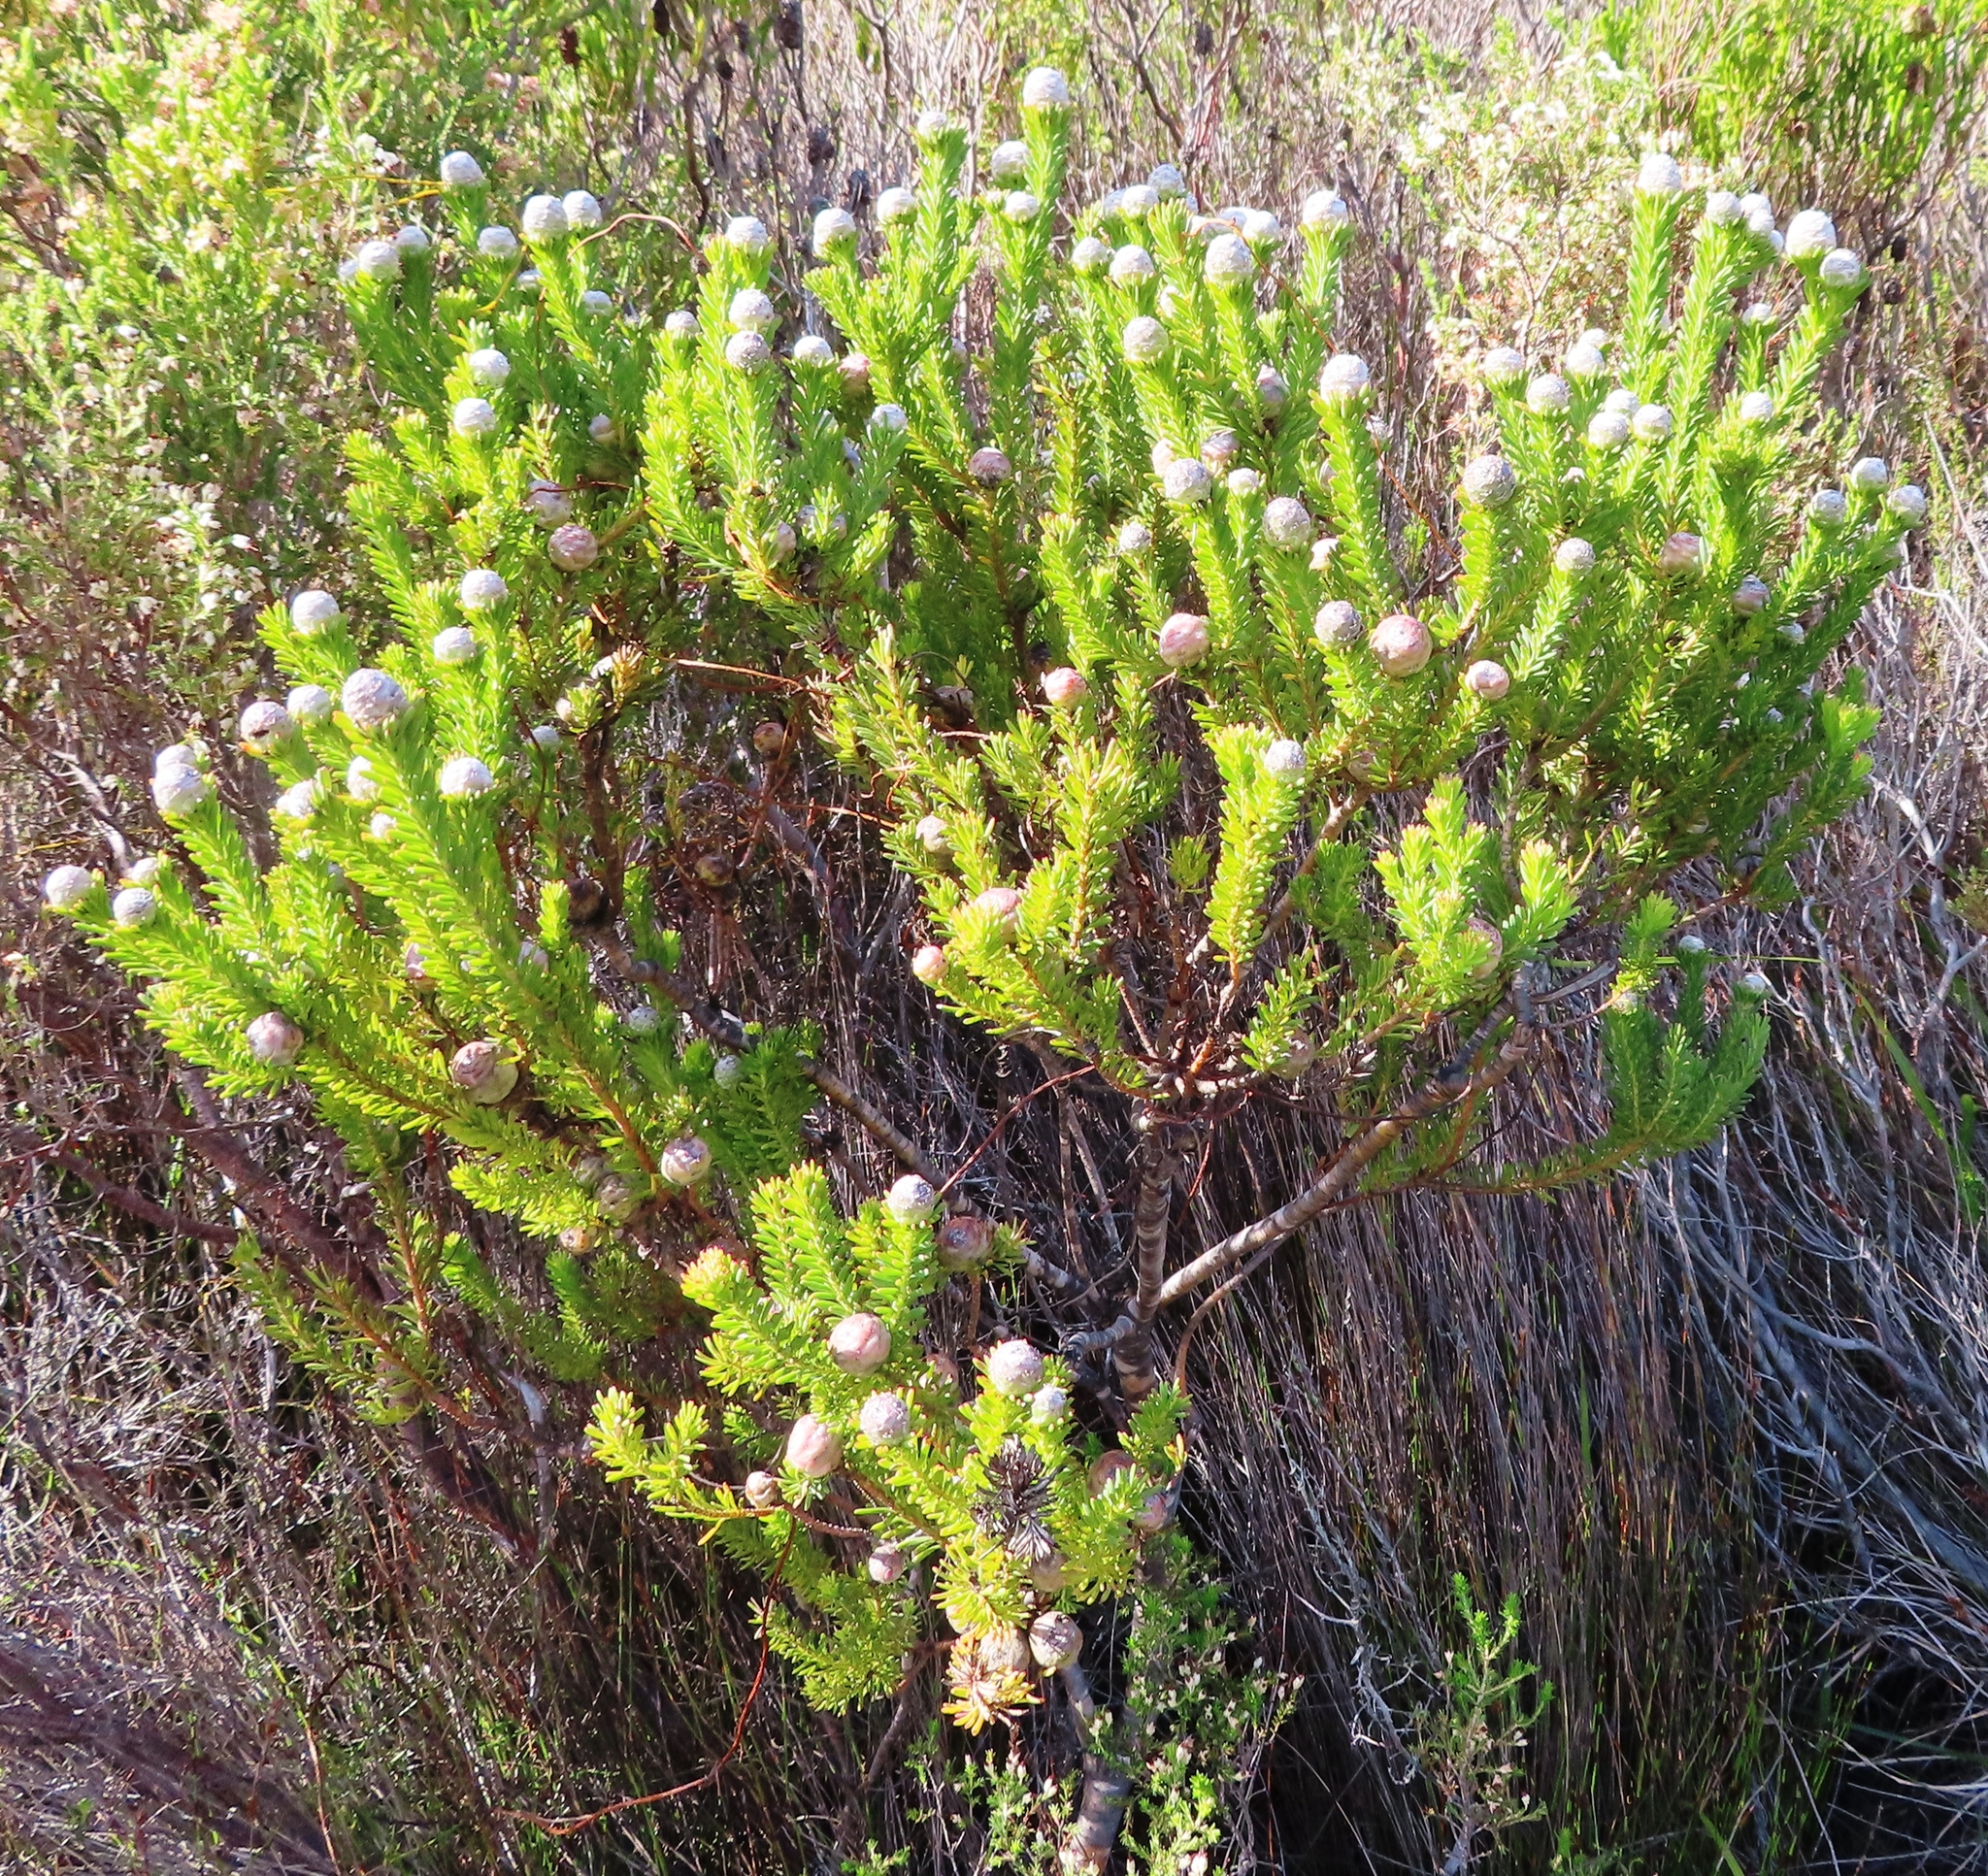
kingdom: Plantae
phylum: Tracheophyta
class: Magnoliopsida
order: Proteales
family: Proteaceae
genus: Leucadendron
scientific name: Leucadendron linifolium
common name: Line-leaf conebush
